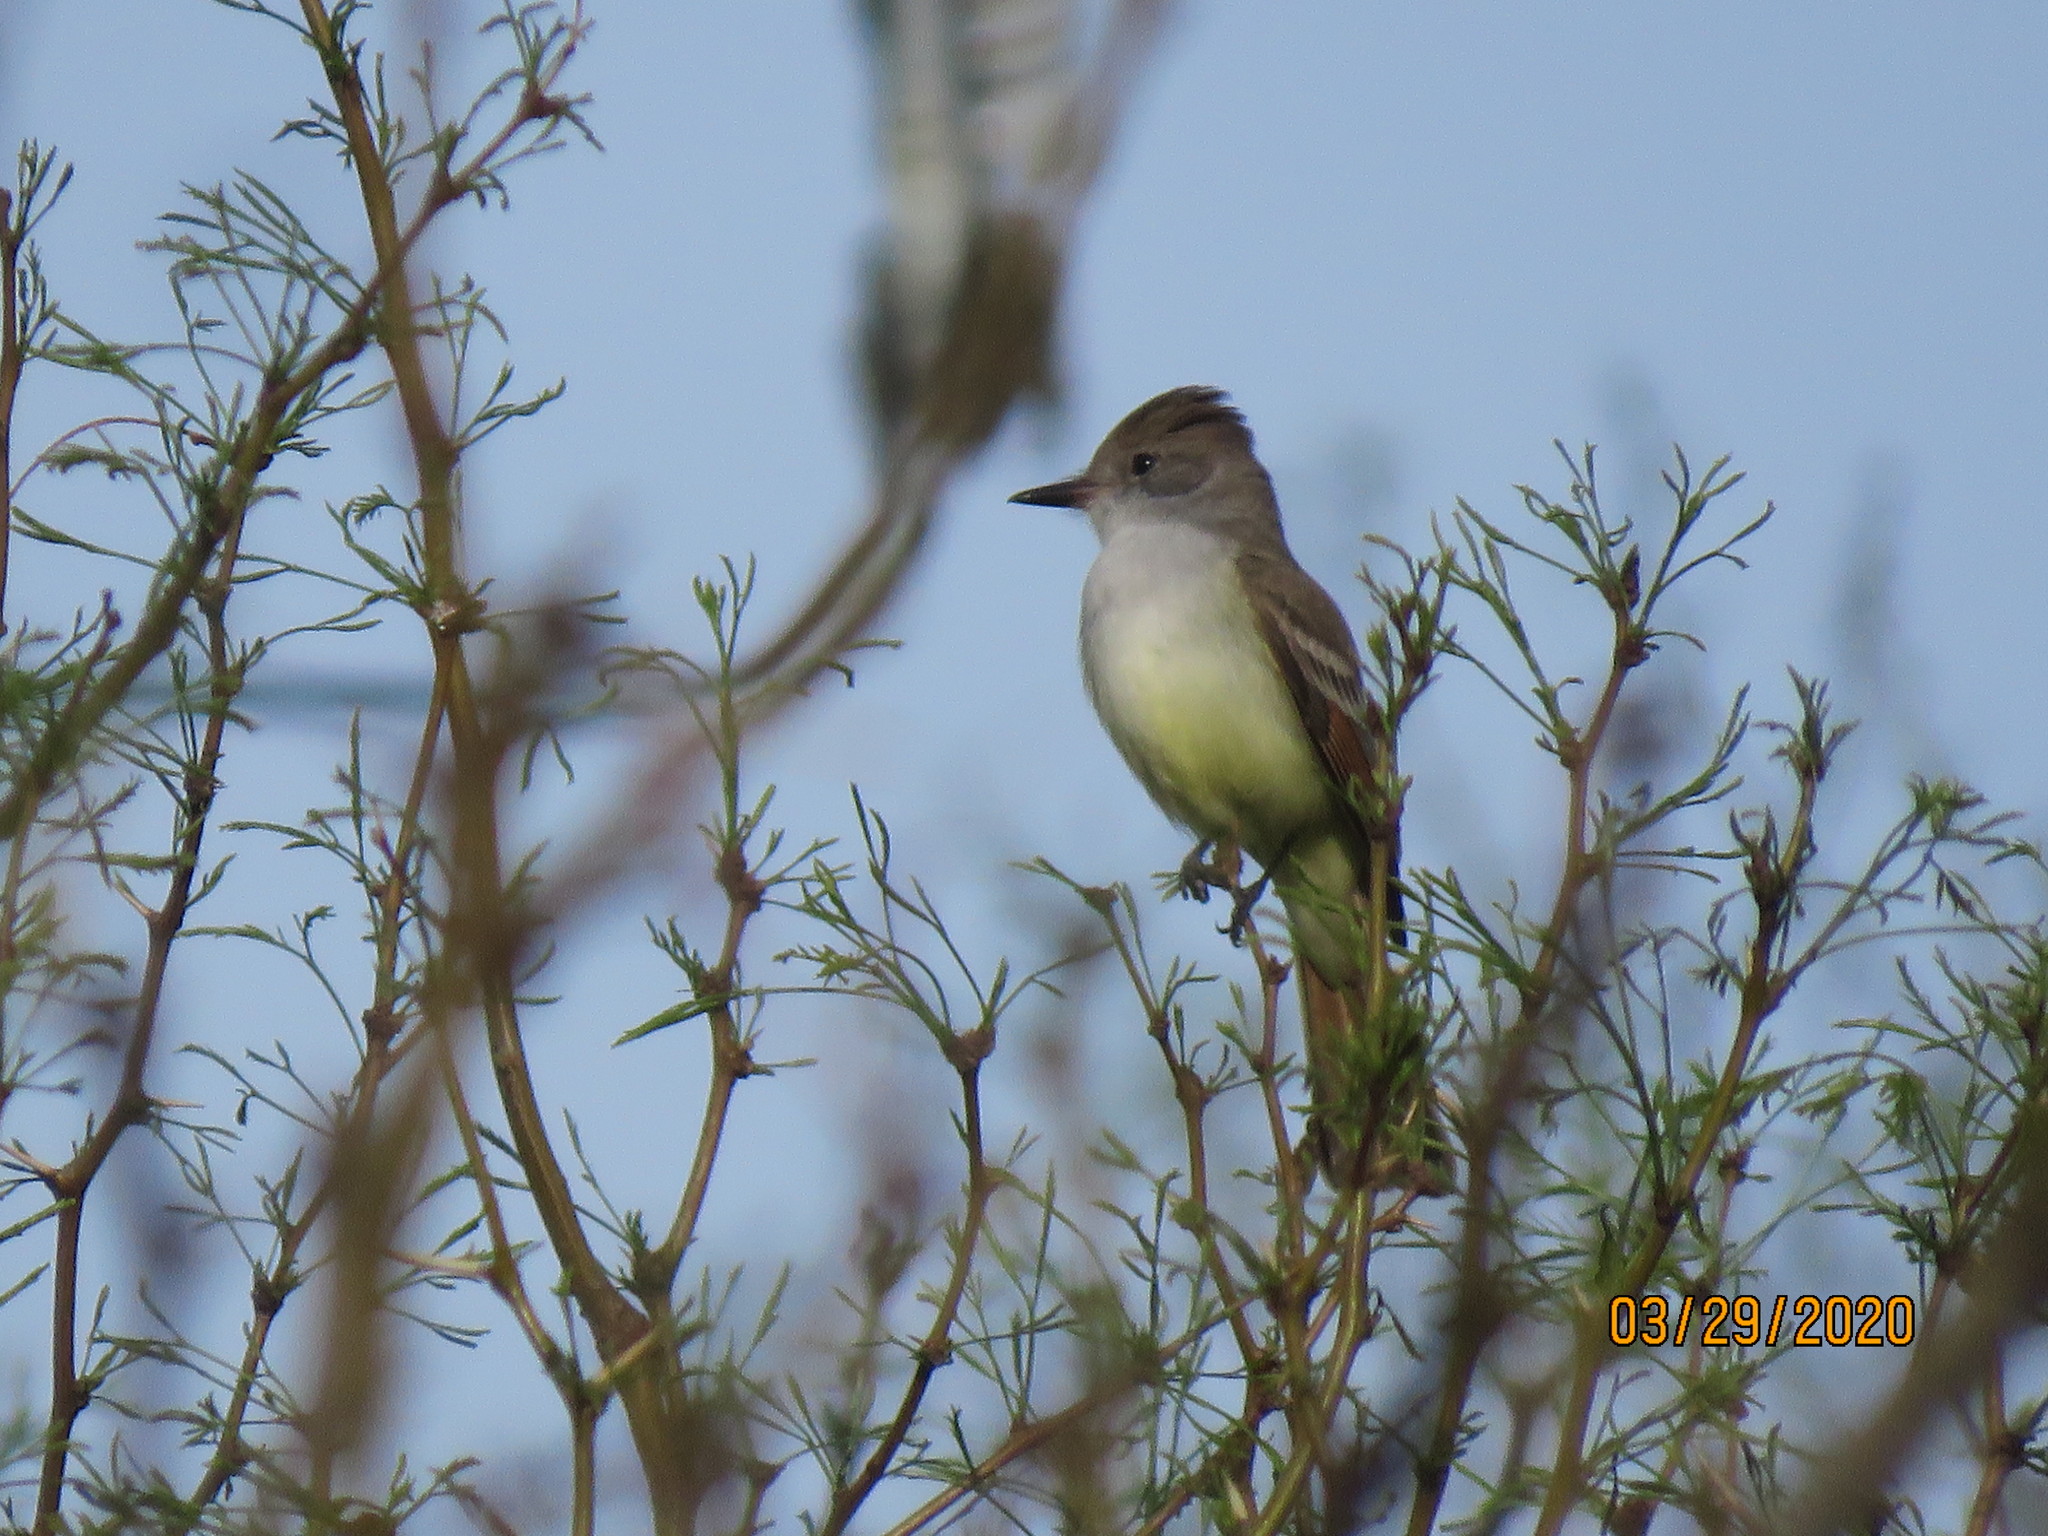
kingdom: Animalia
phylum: Chordata
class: Aves
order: Passeriformes
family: Tyrannidae
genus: Myiarchus
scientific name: Myiarchus cinerascens
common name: Ash-throated flycatcher
